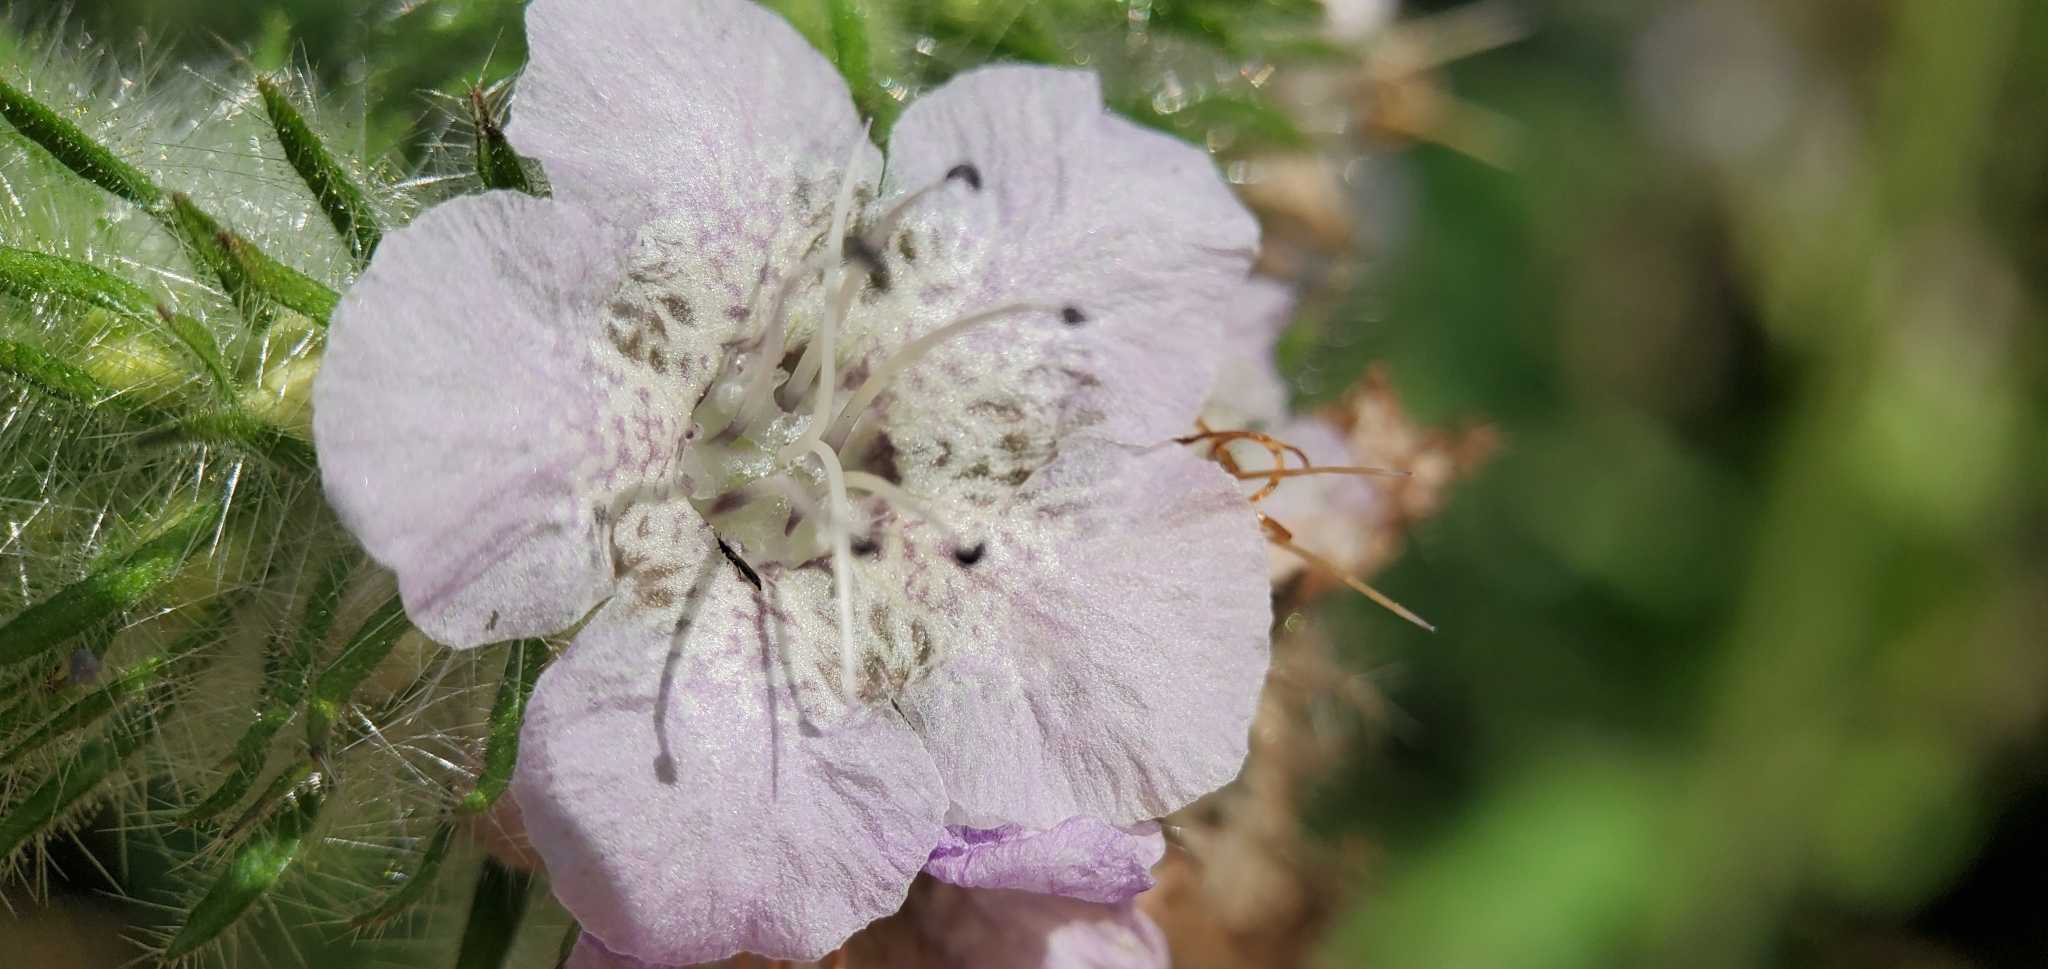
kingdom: Plantae
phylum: Tracheophyta
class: Magnoliopsida
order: Boraginales
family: Hydrophyllaceae
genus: Phacelia
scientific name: Phacelia cicutaria
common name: Caterpillar phacelia
